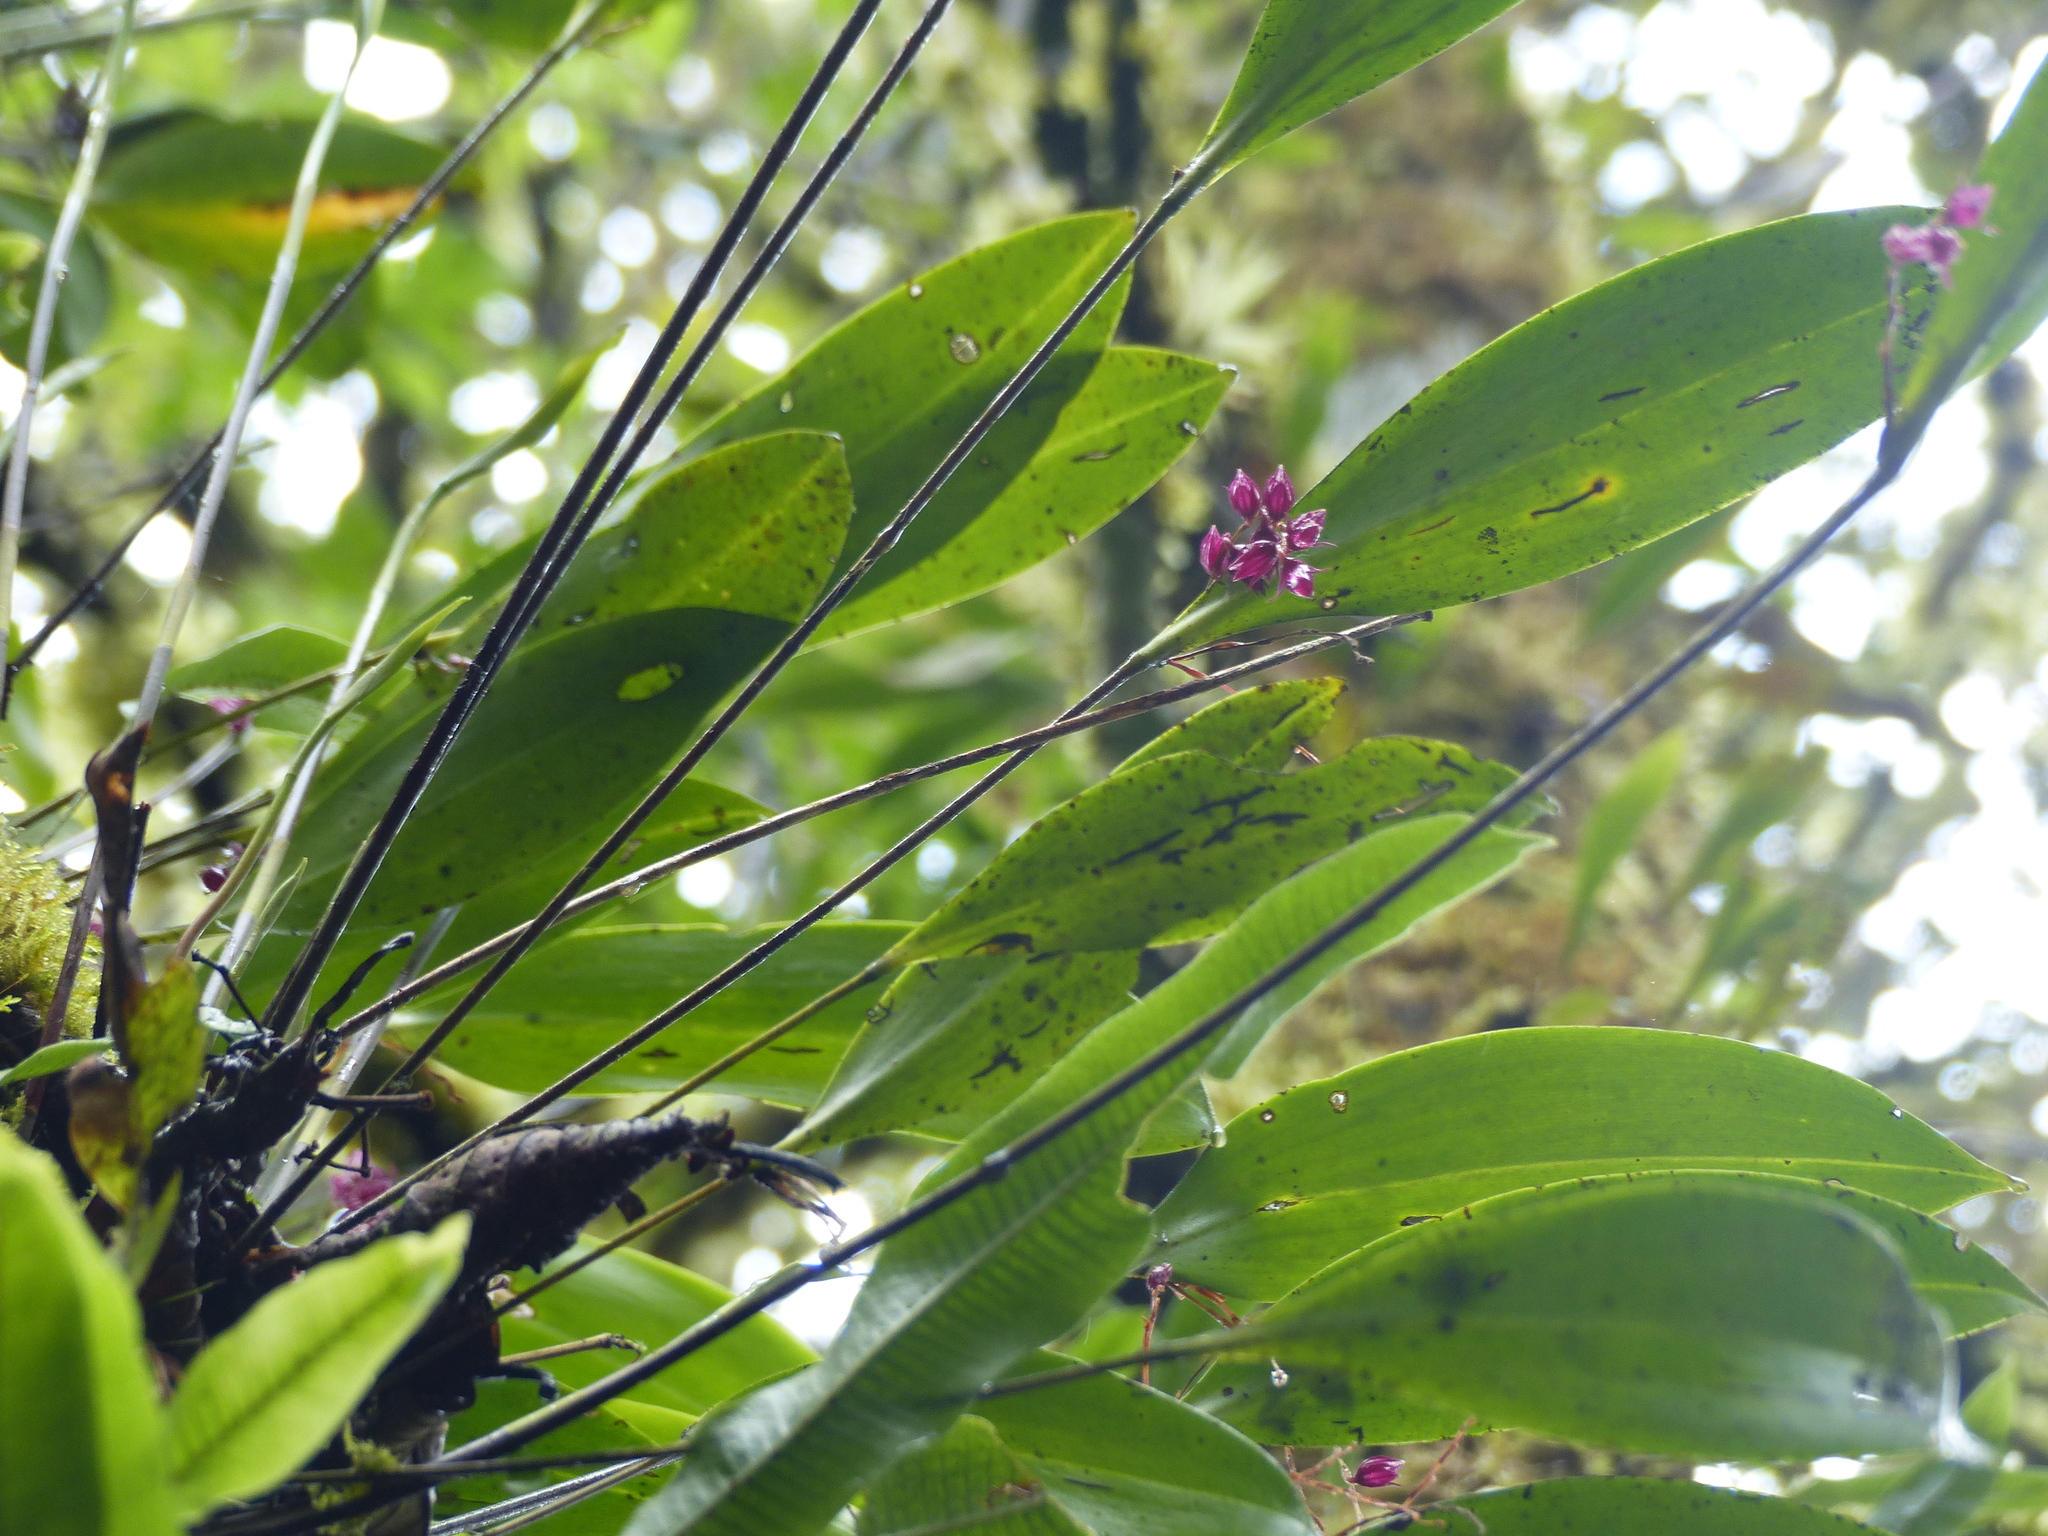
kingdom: Plantae
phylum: Tracheophyta
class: Liliopsida
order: Asparagales
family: Orchidaceae
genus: Pleurothallis
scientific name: Pleurothallis lindenii
